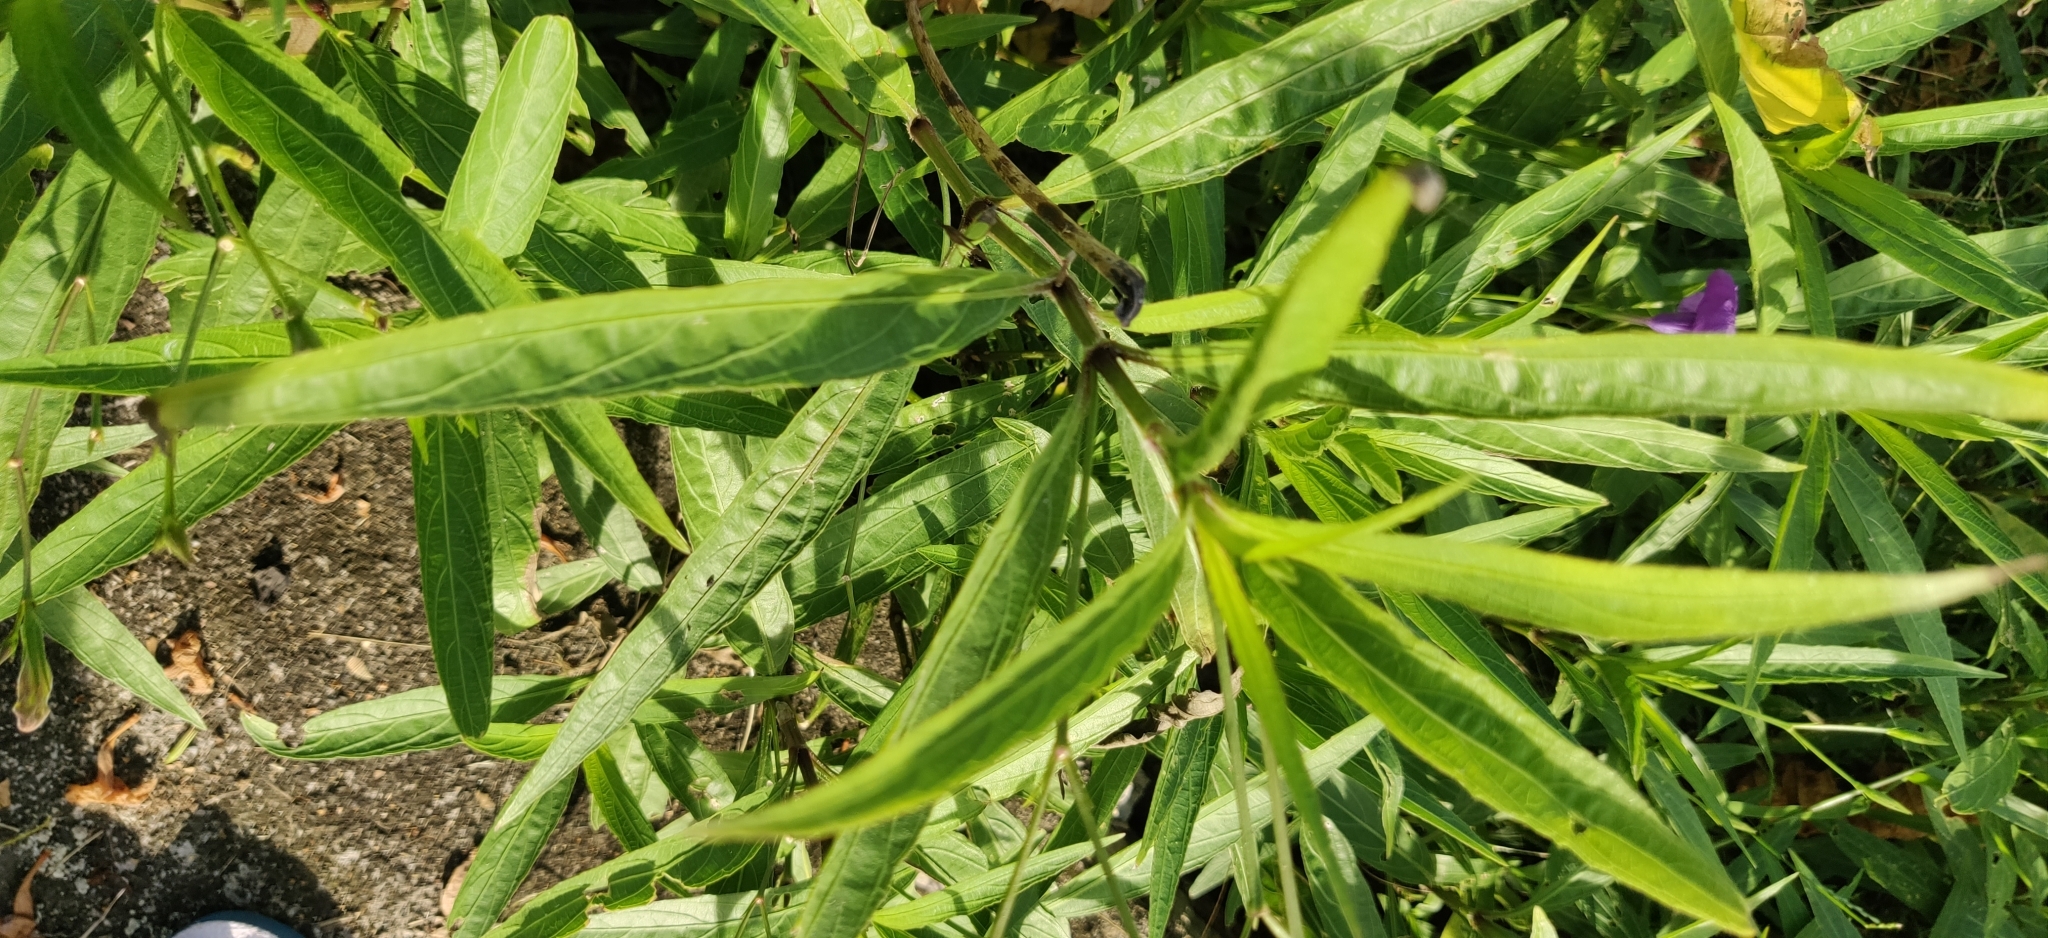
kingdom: Plantae
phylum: Tracheophyta
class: Magnoliopsida
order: Lamiales
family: Acanthaceae
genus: Ruellia
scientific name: Ruellia simplex
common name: Softseed wild petunia
